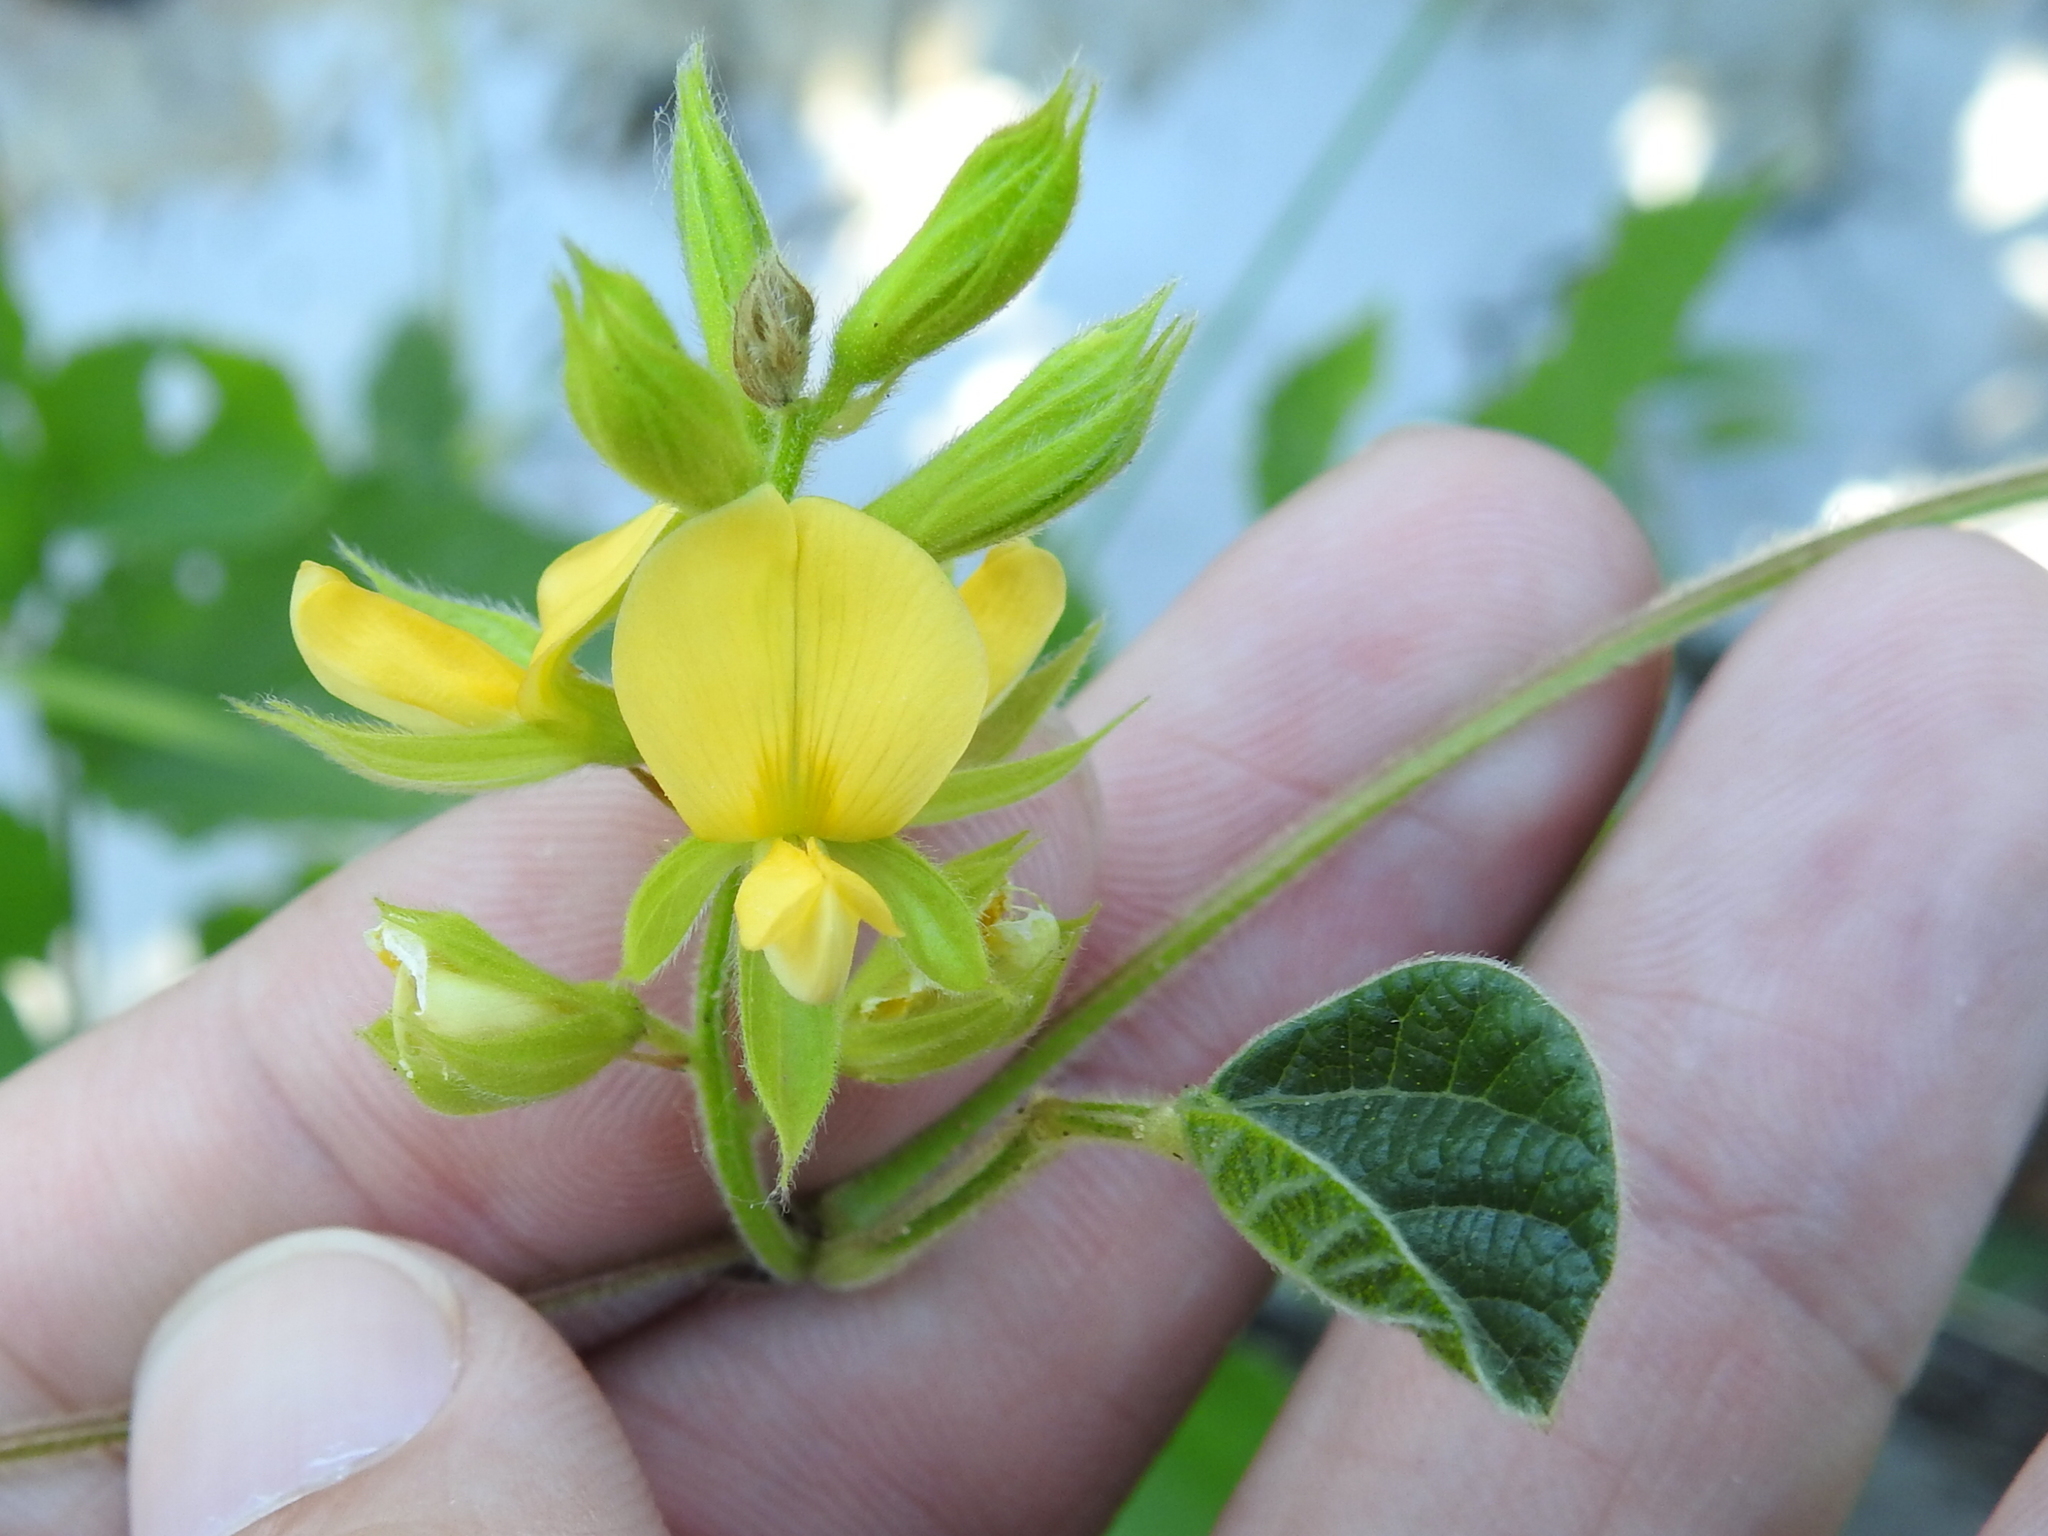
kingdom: Plantae
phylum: Tracheophyta
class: Magnoliopsida
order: Fabales
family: Fabaceae
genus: Rhynchosia
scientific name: Rhynchosia latifolia
